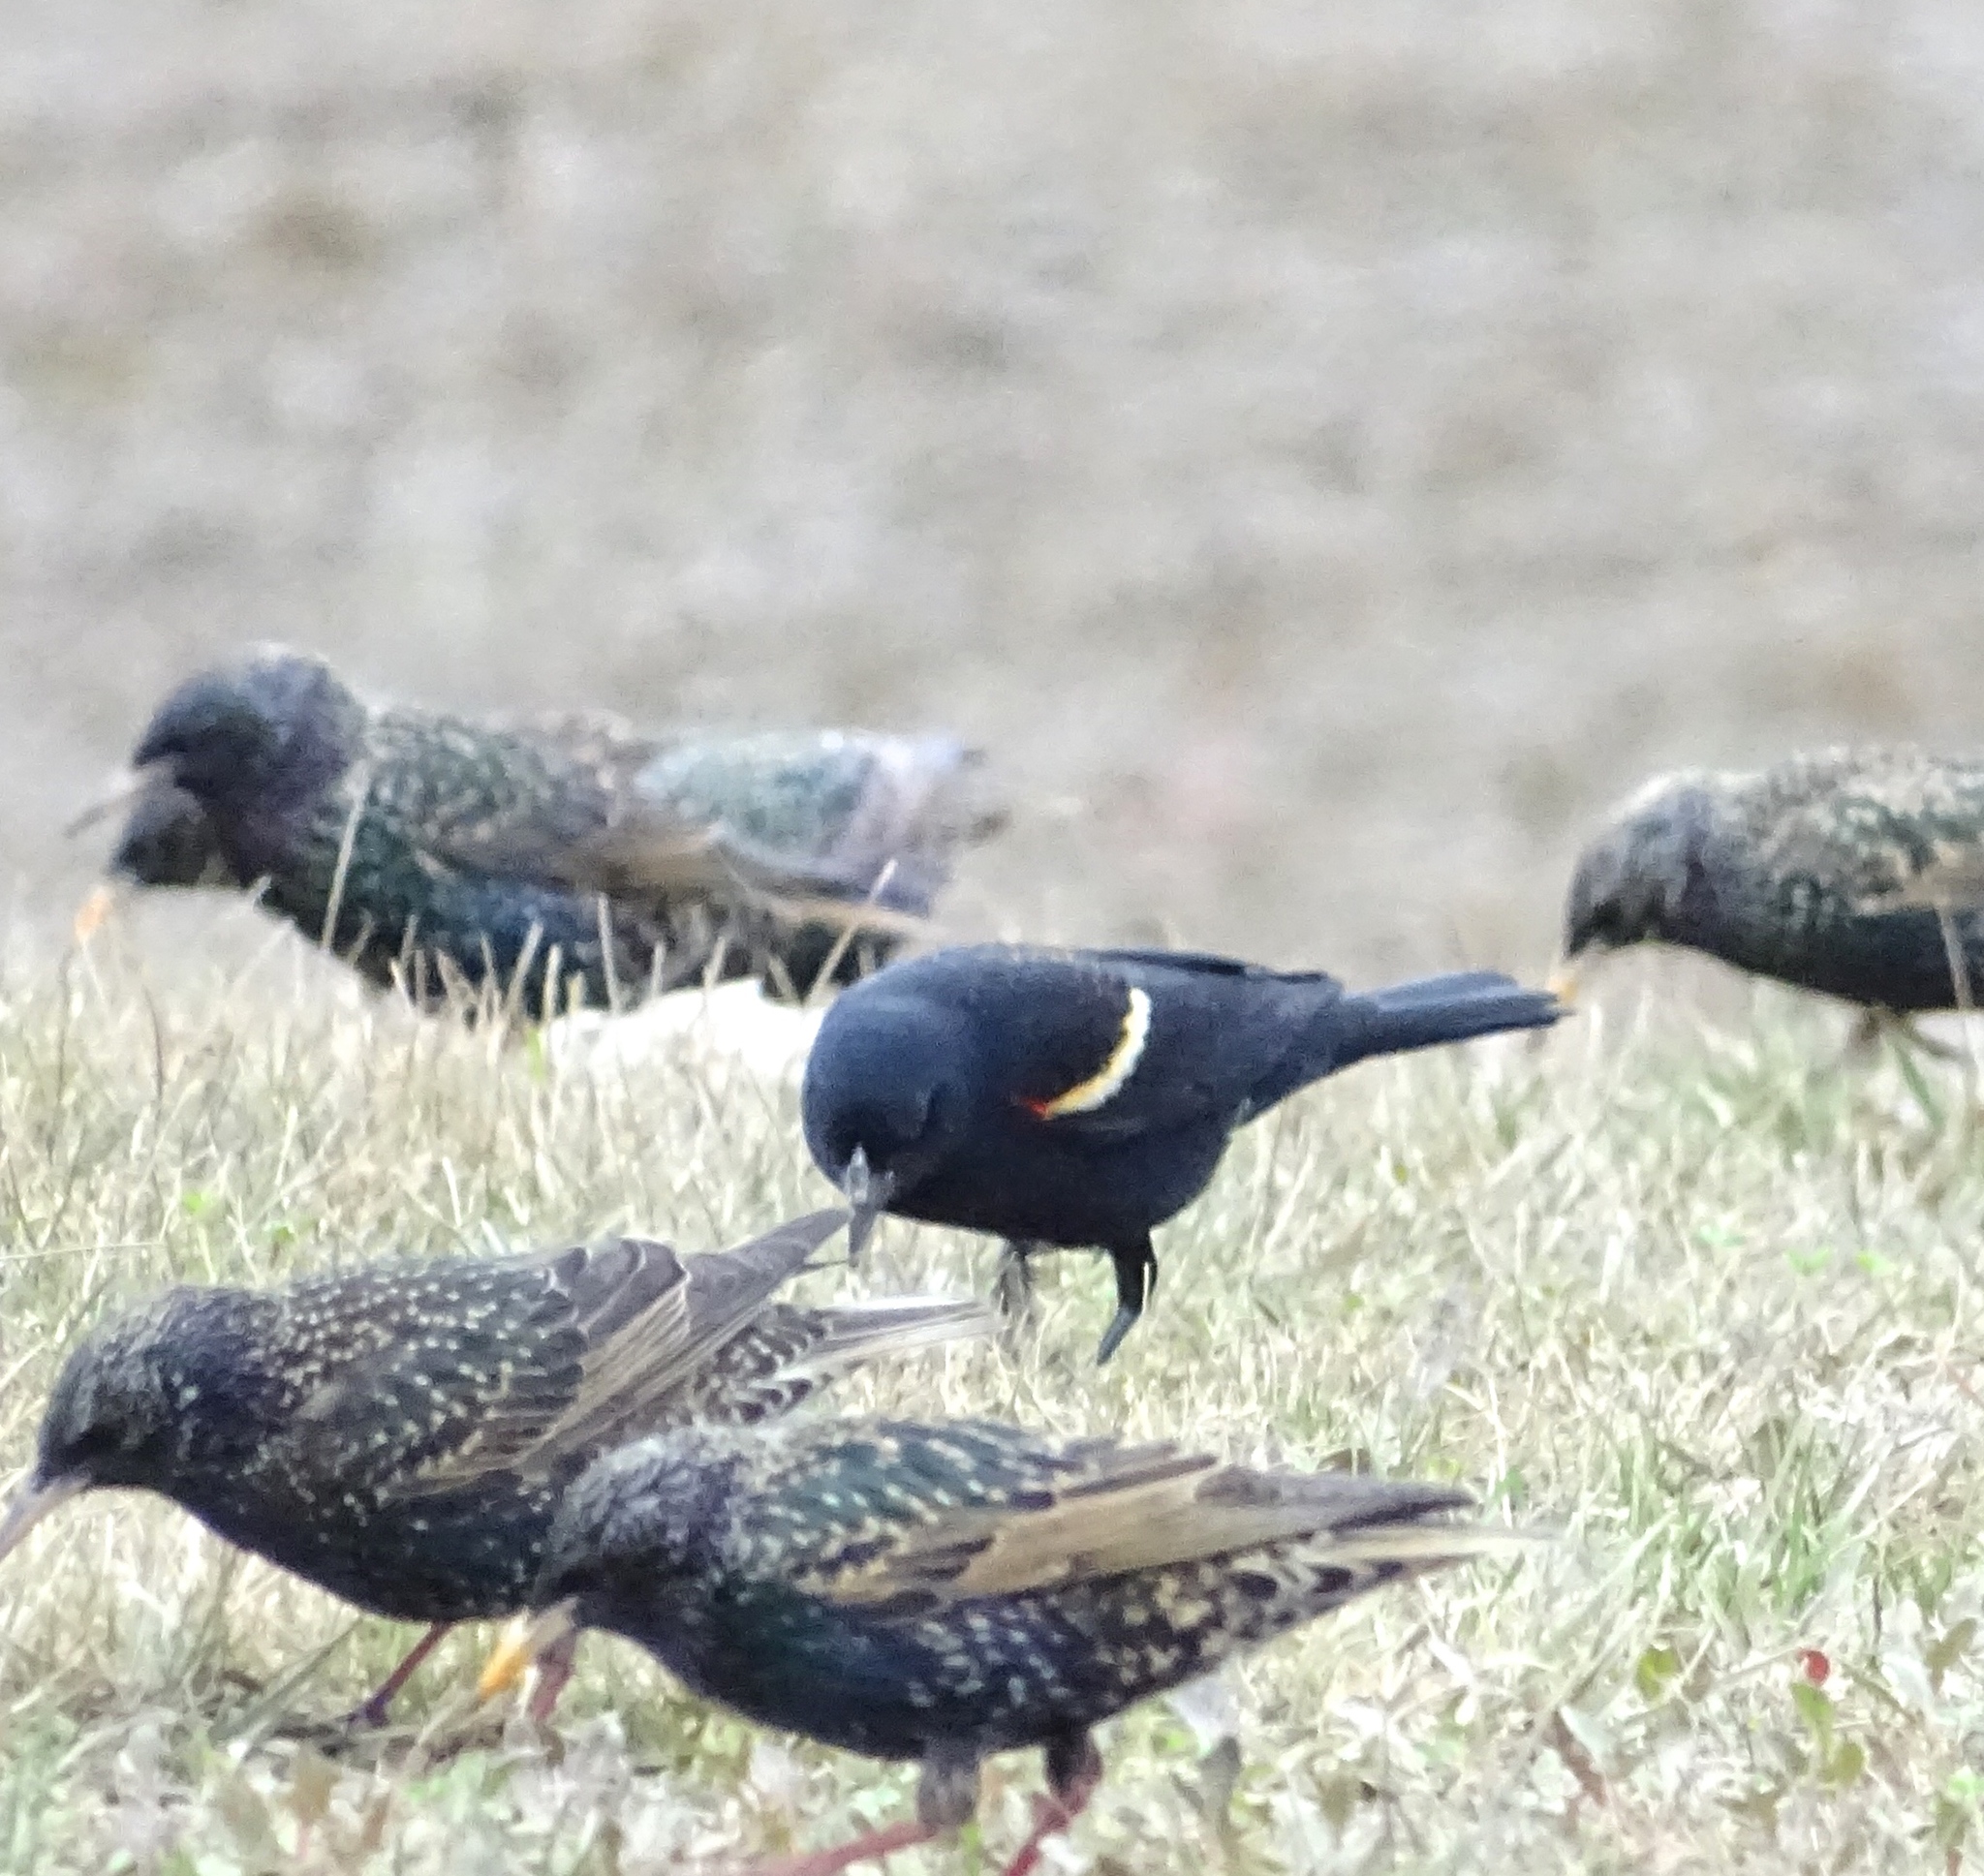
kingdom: Animalia
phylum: Chordata
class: Aves
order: Passeriformes
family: Icteridae
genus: Agelaius
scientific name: Agelaius phoeniceus
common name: Red-winged blackbird
